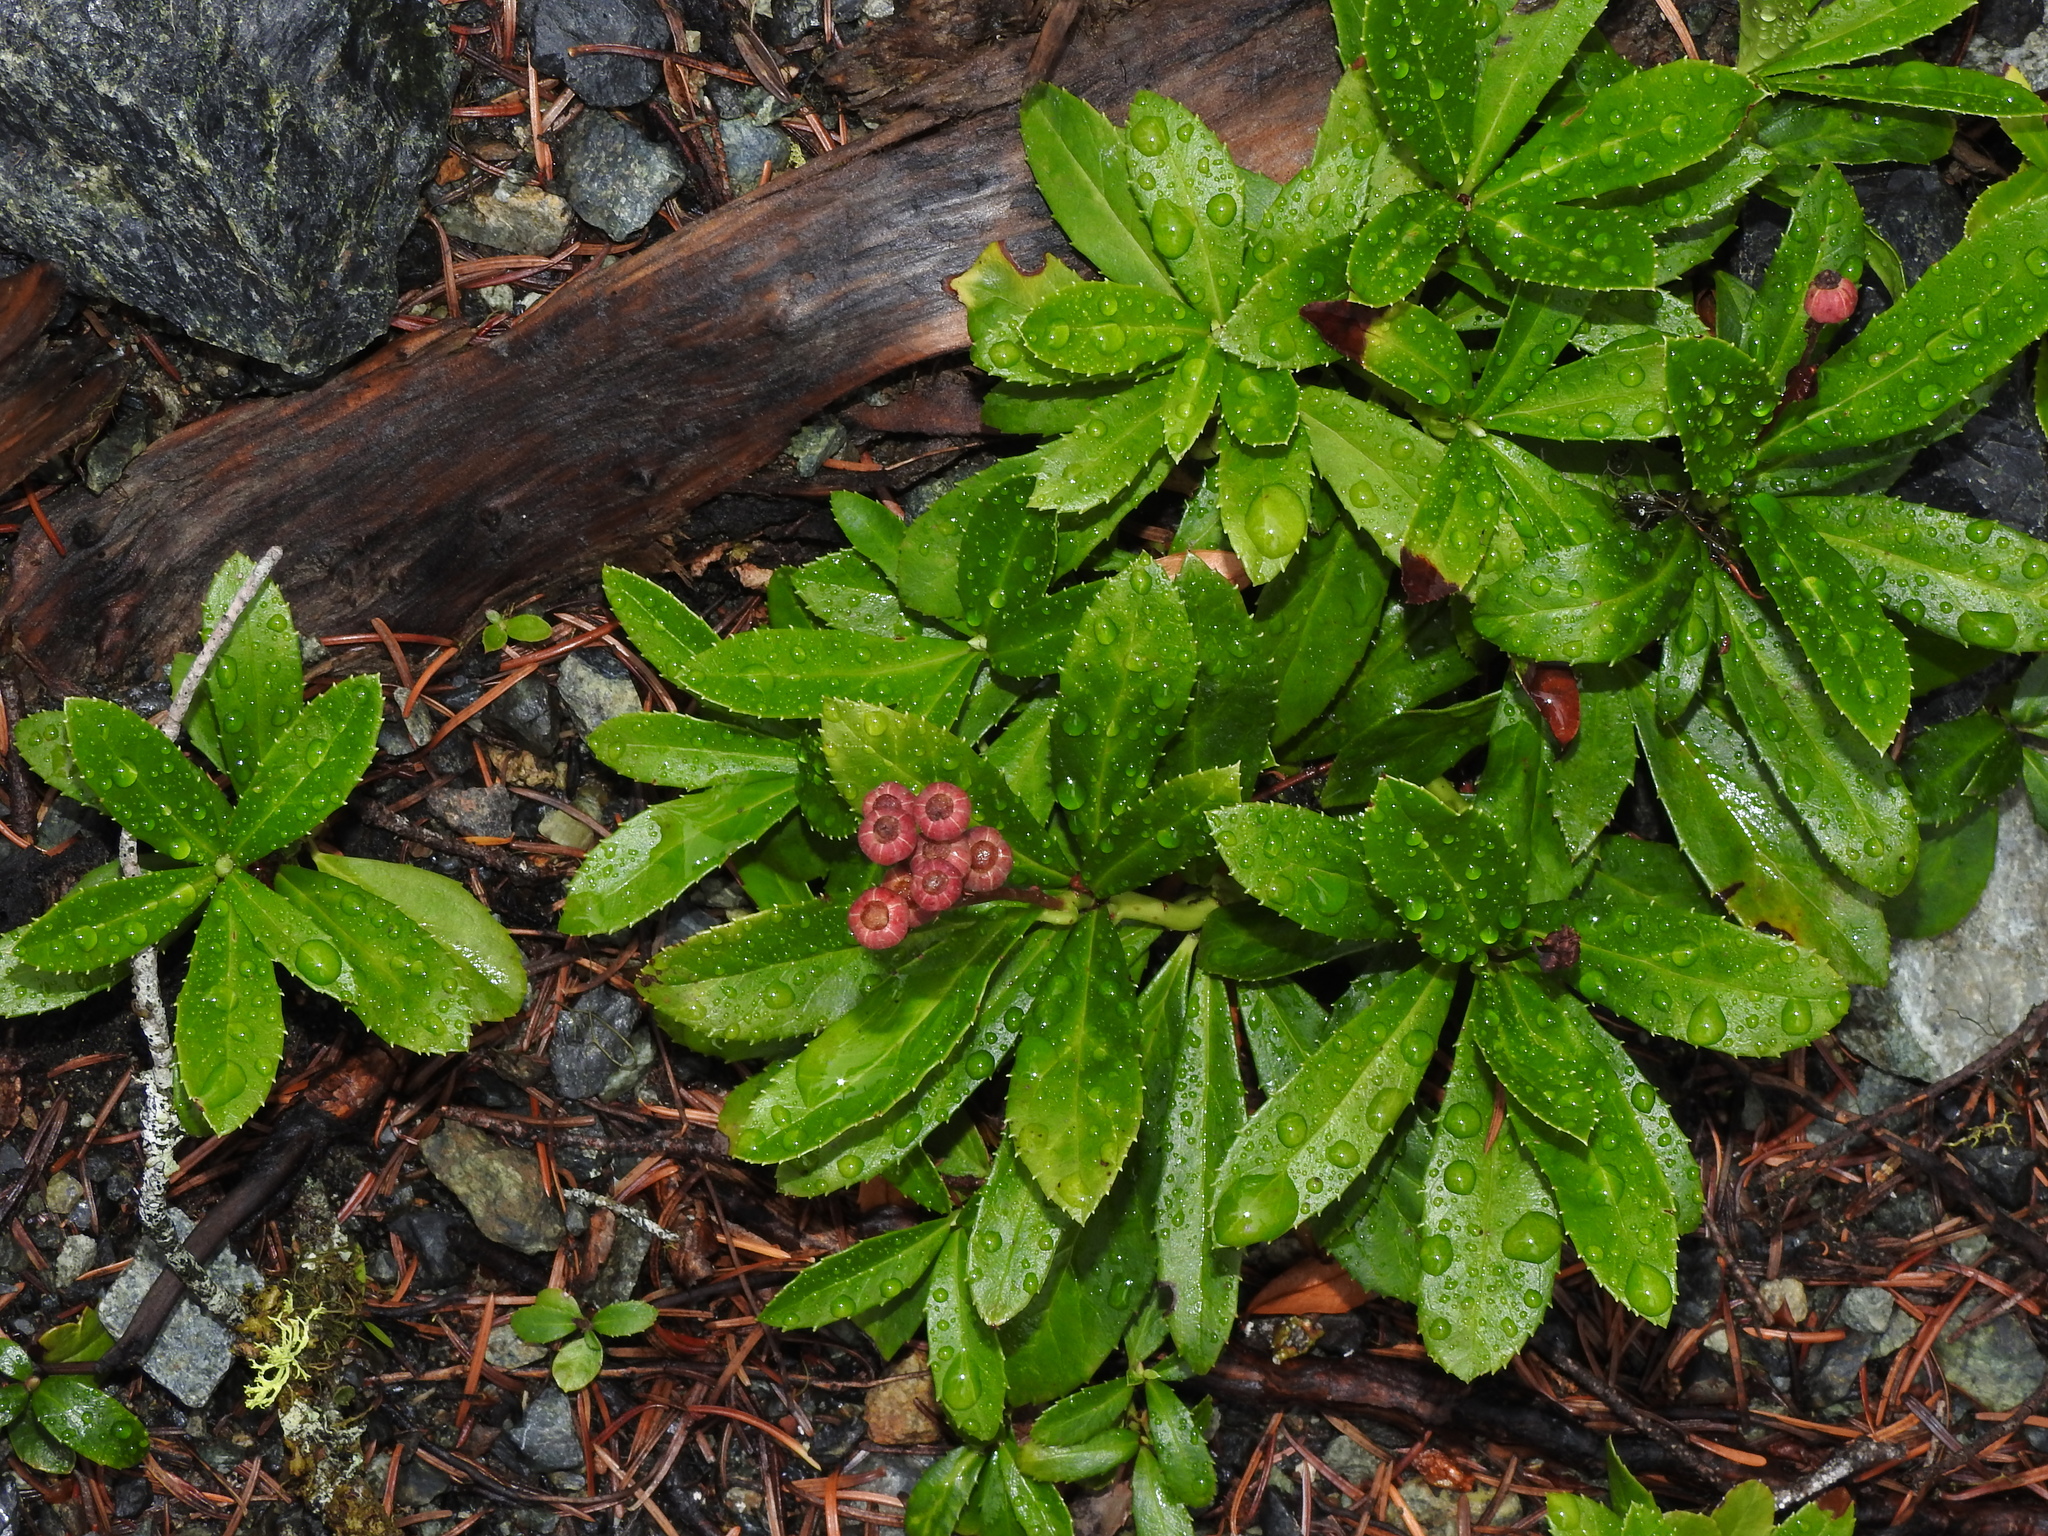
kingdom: Plantae
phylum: Tracheophyta
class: Magnoliopsida
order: Ericales
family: Ericaceae
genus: Chimaphila
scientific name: Chimaphila umbellata
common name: Pipsissewa
